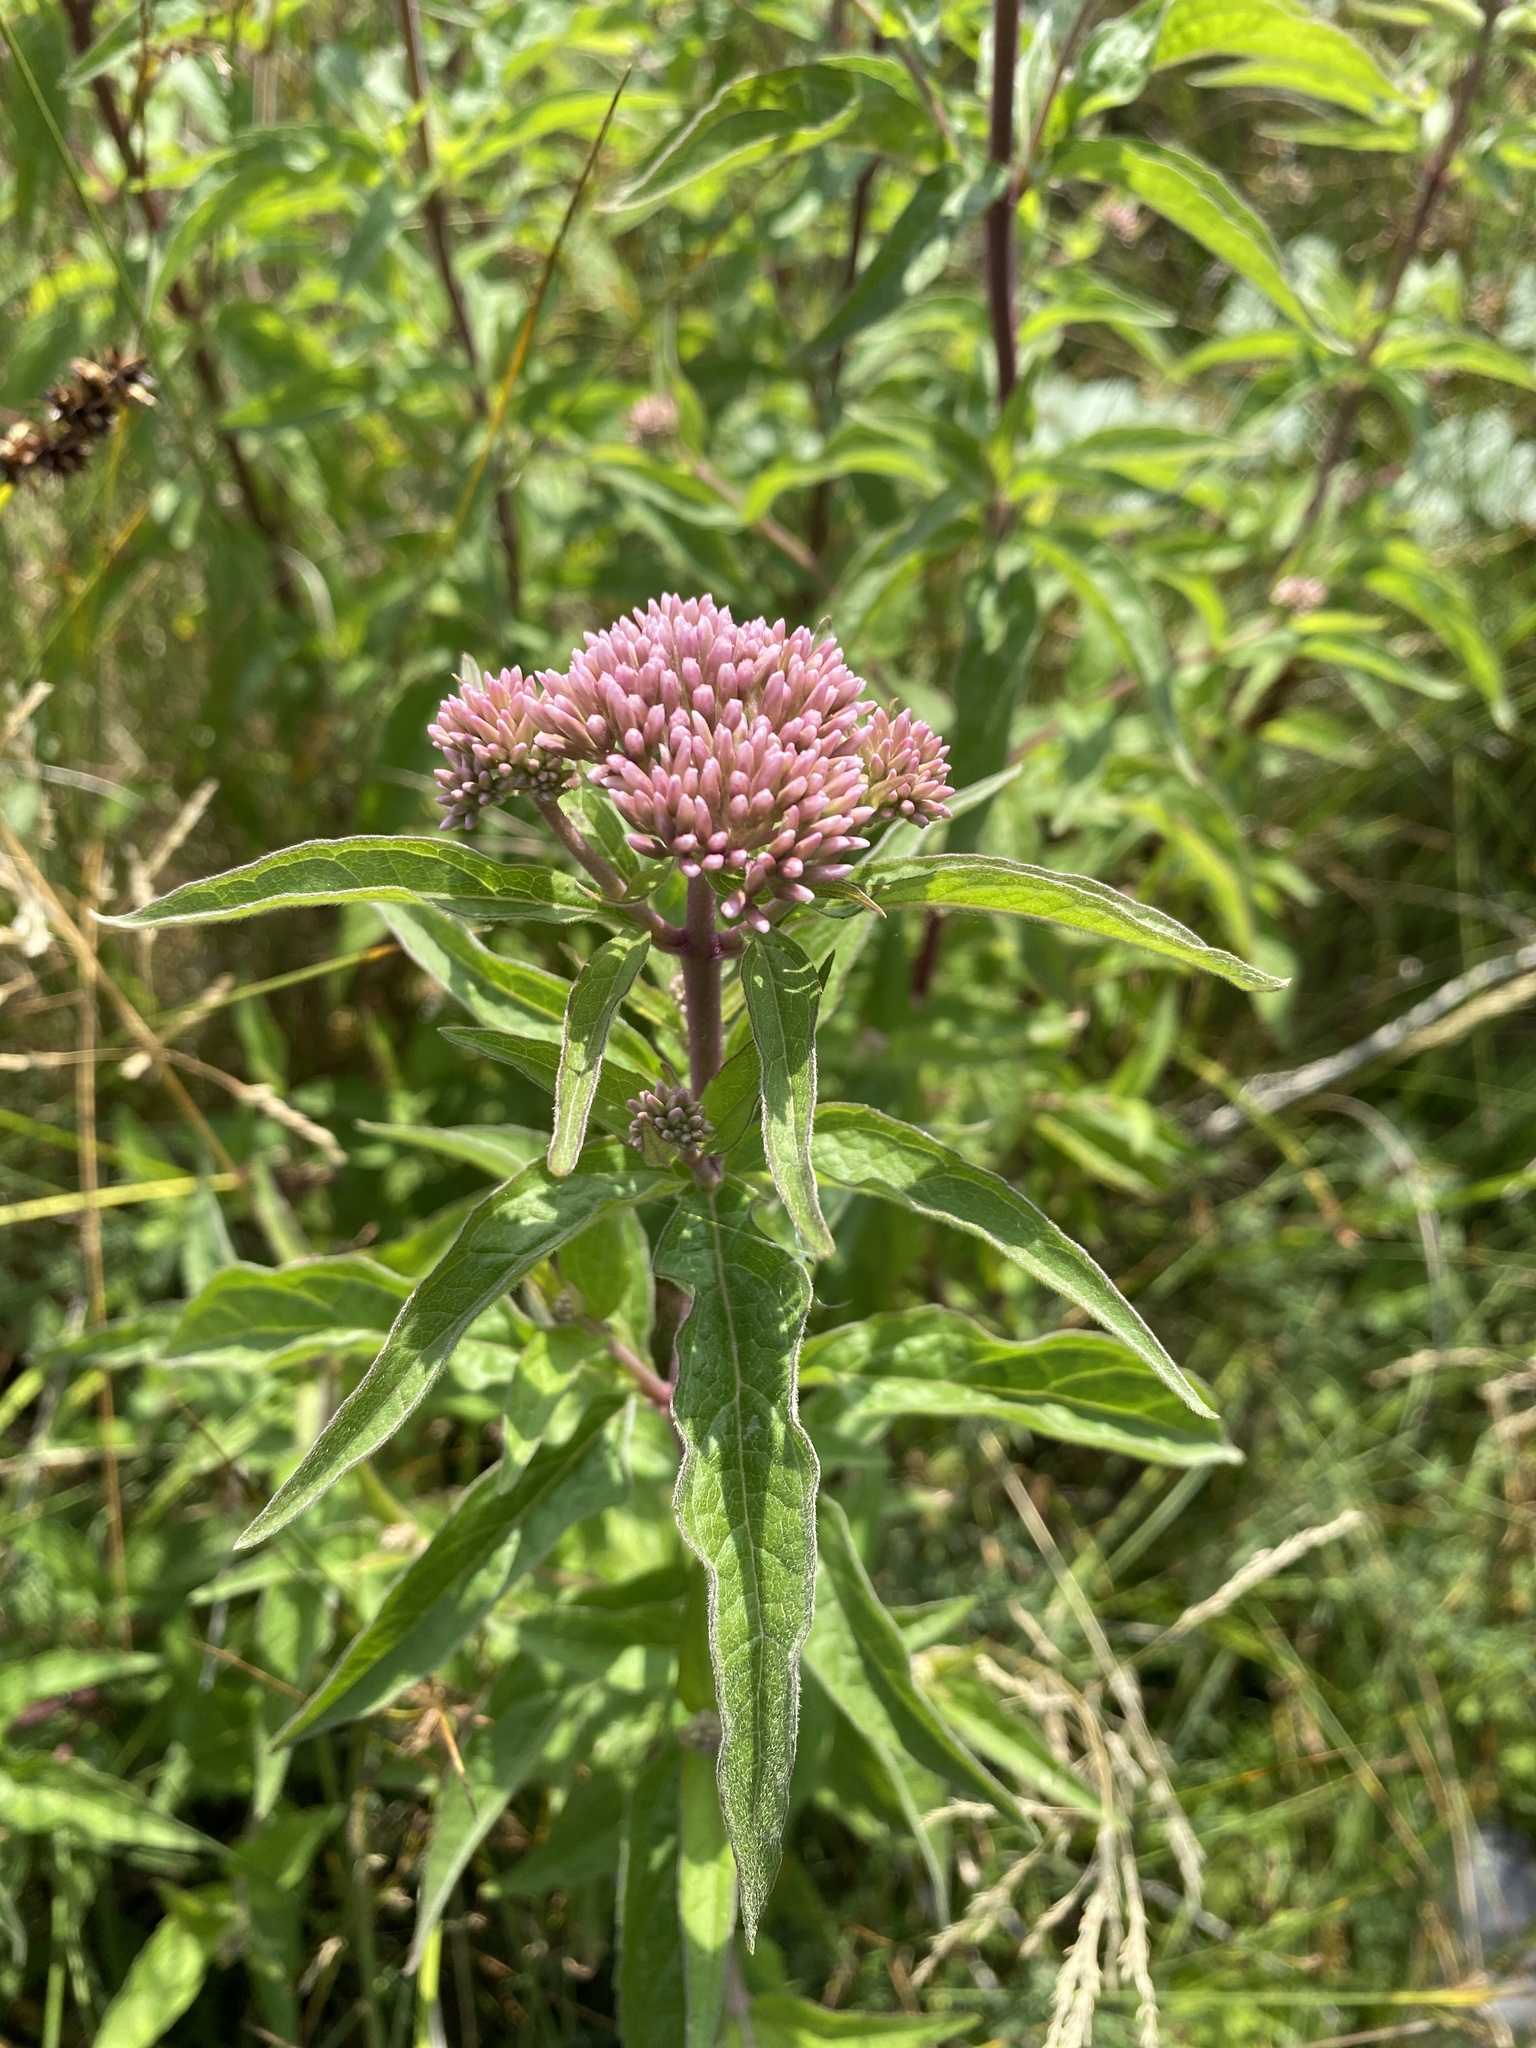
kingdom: Plantae
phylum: Tracheophyta
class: Magnoliopsida
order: Asterales
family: Asteraceae
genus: Eupatorium
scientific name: Eupatorium cannabinum
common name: Hemp-agrimony
